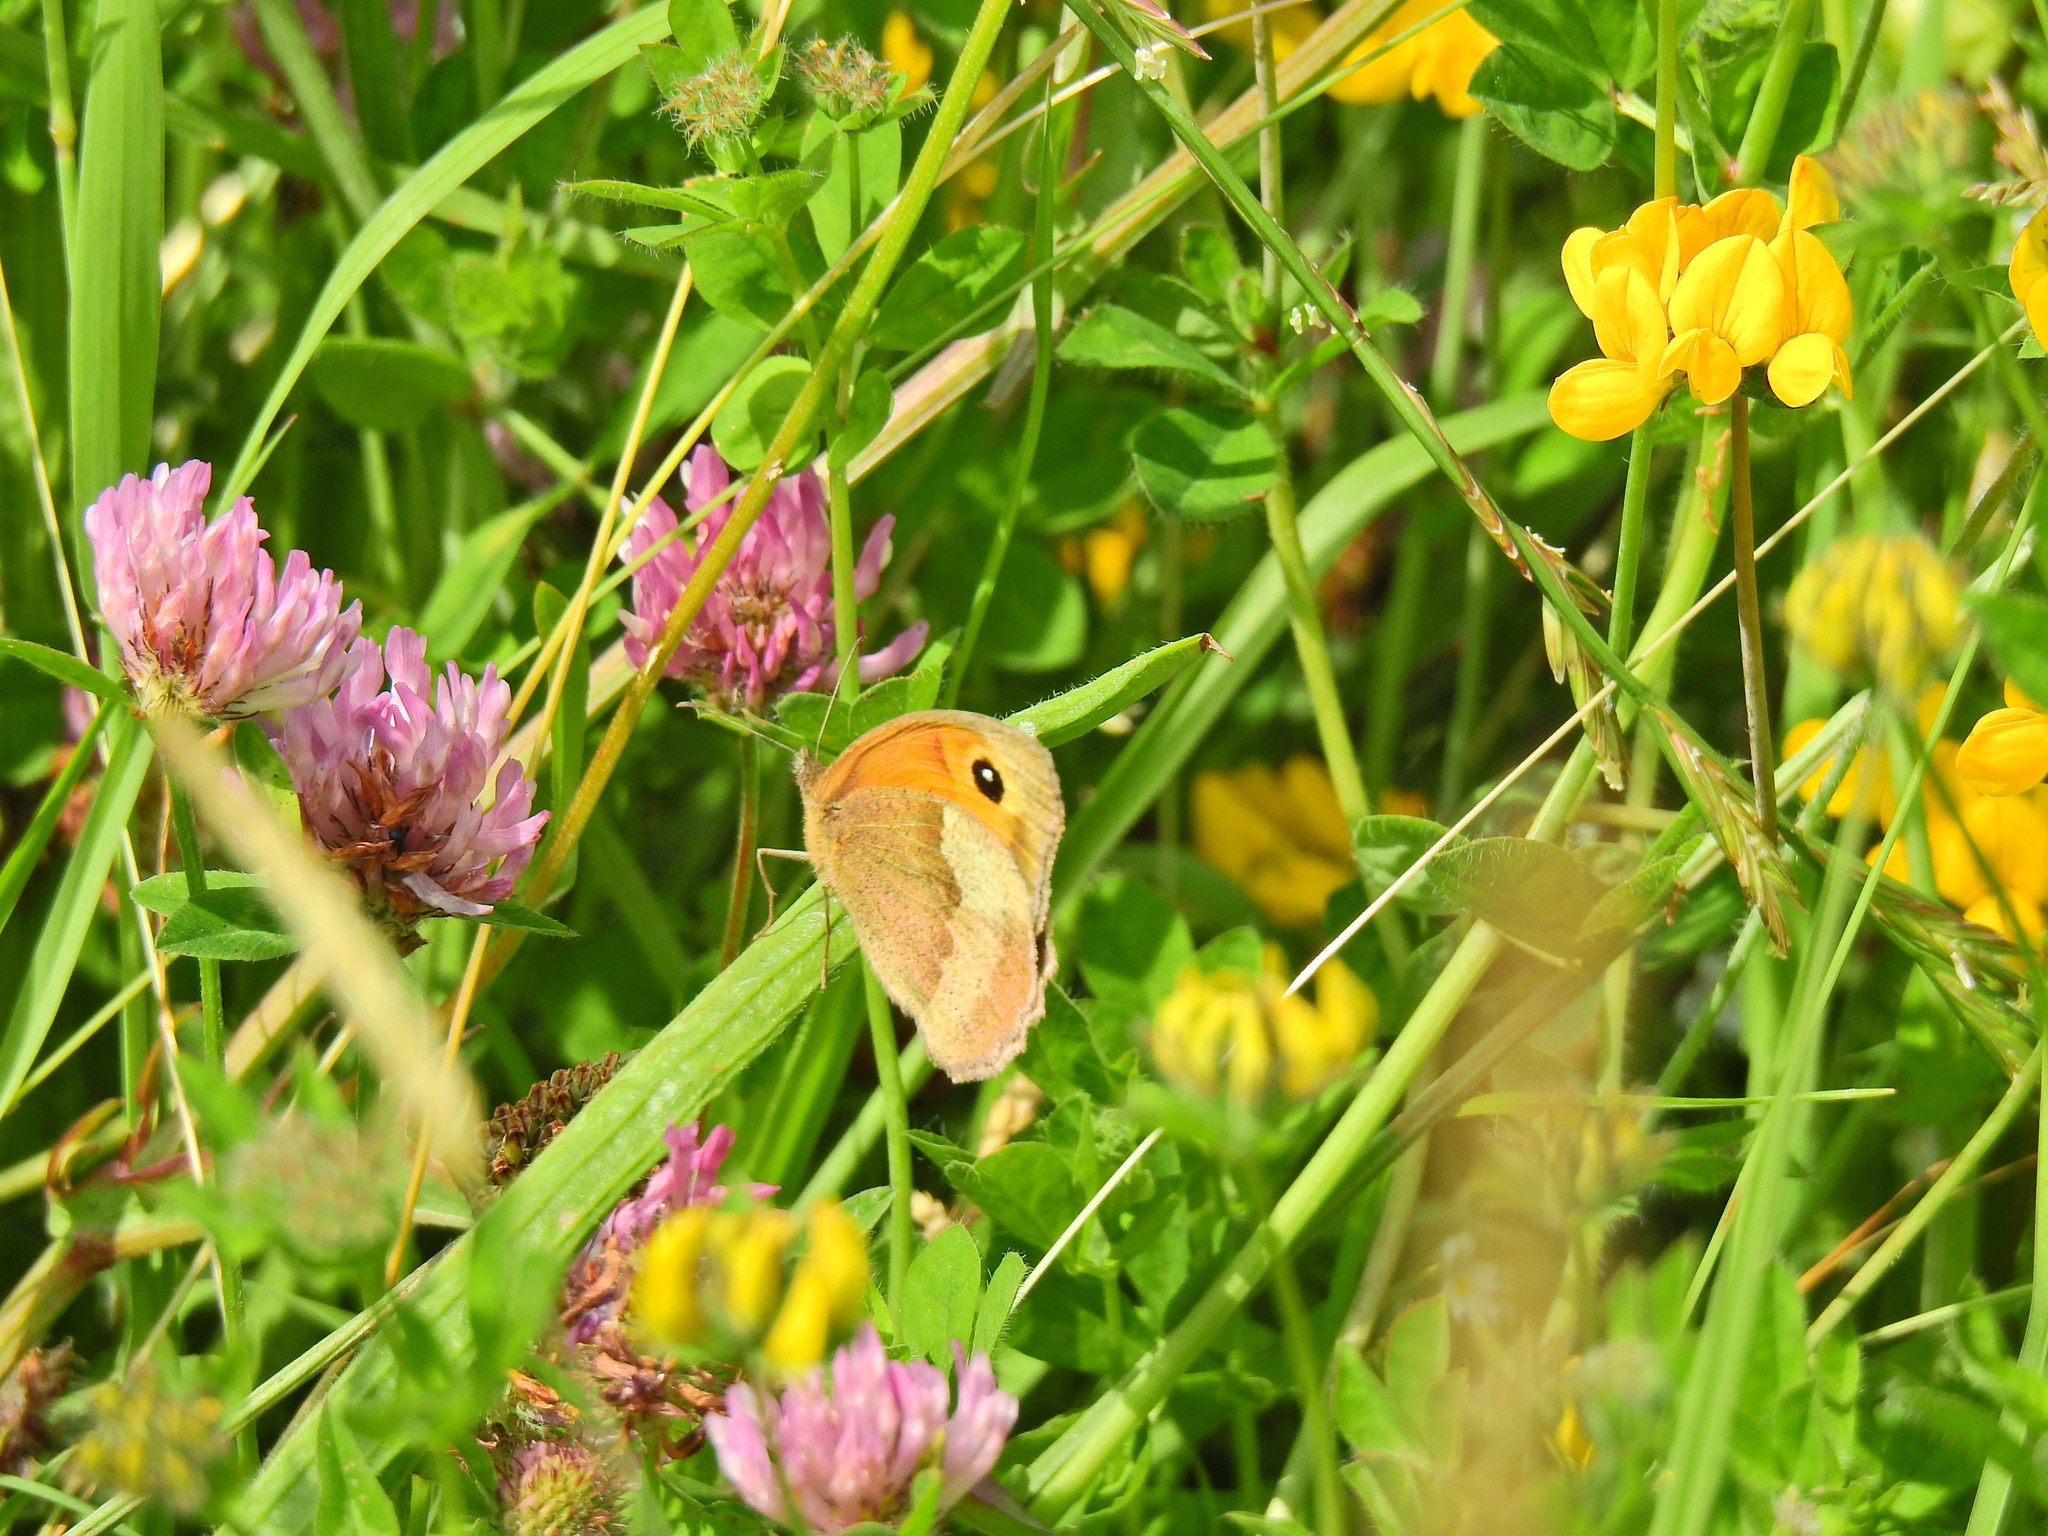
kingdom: Animalia
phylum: Arthropoda
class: Insecta
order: Lepidoptera
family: Nymphalidae
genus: Maniola
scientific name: Maniola jurtina
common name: Meadow brown
